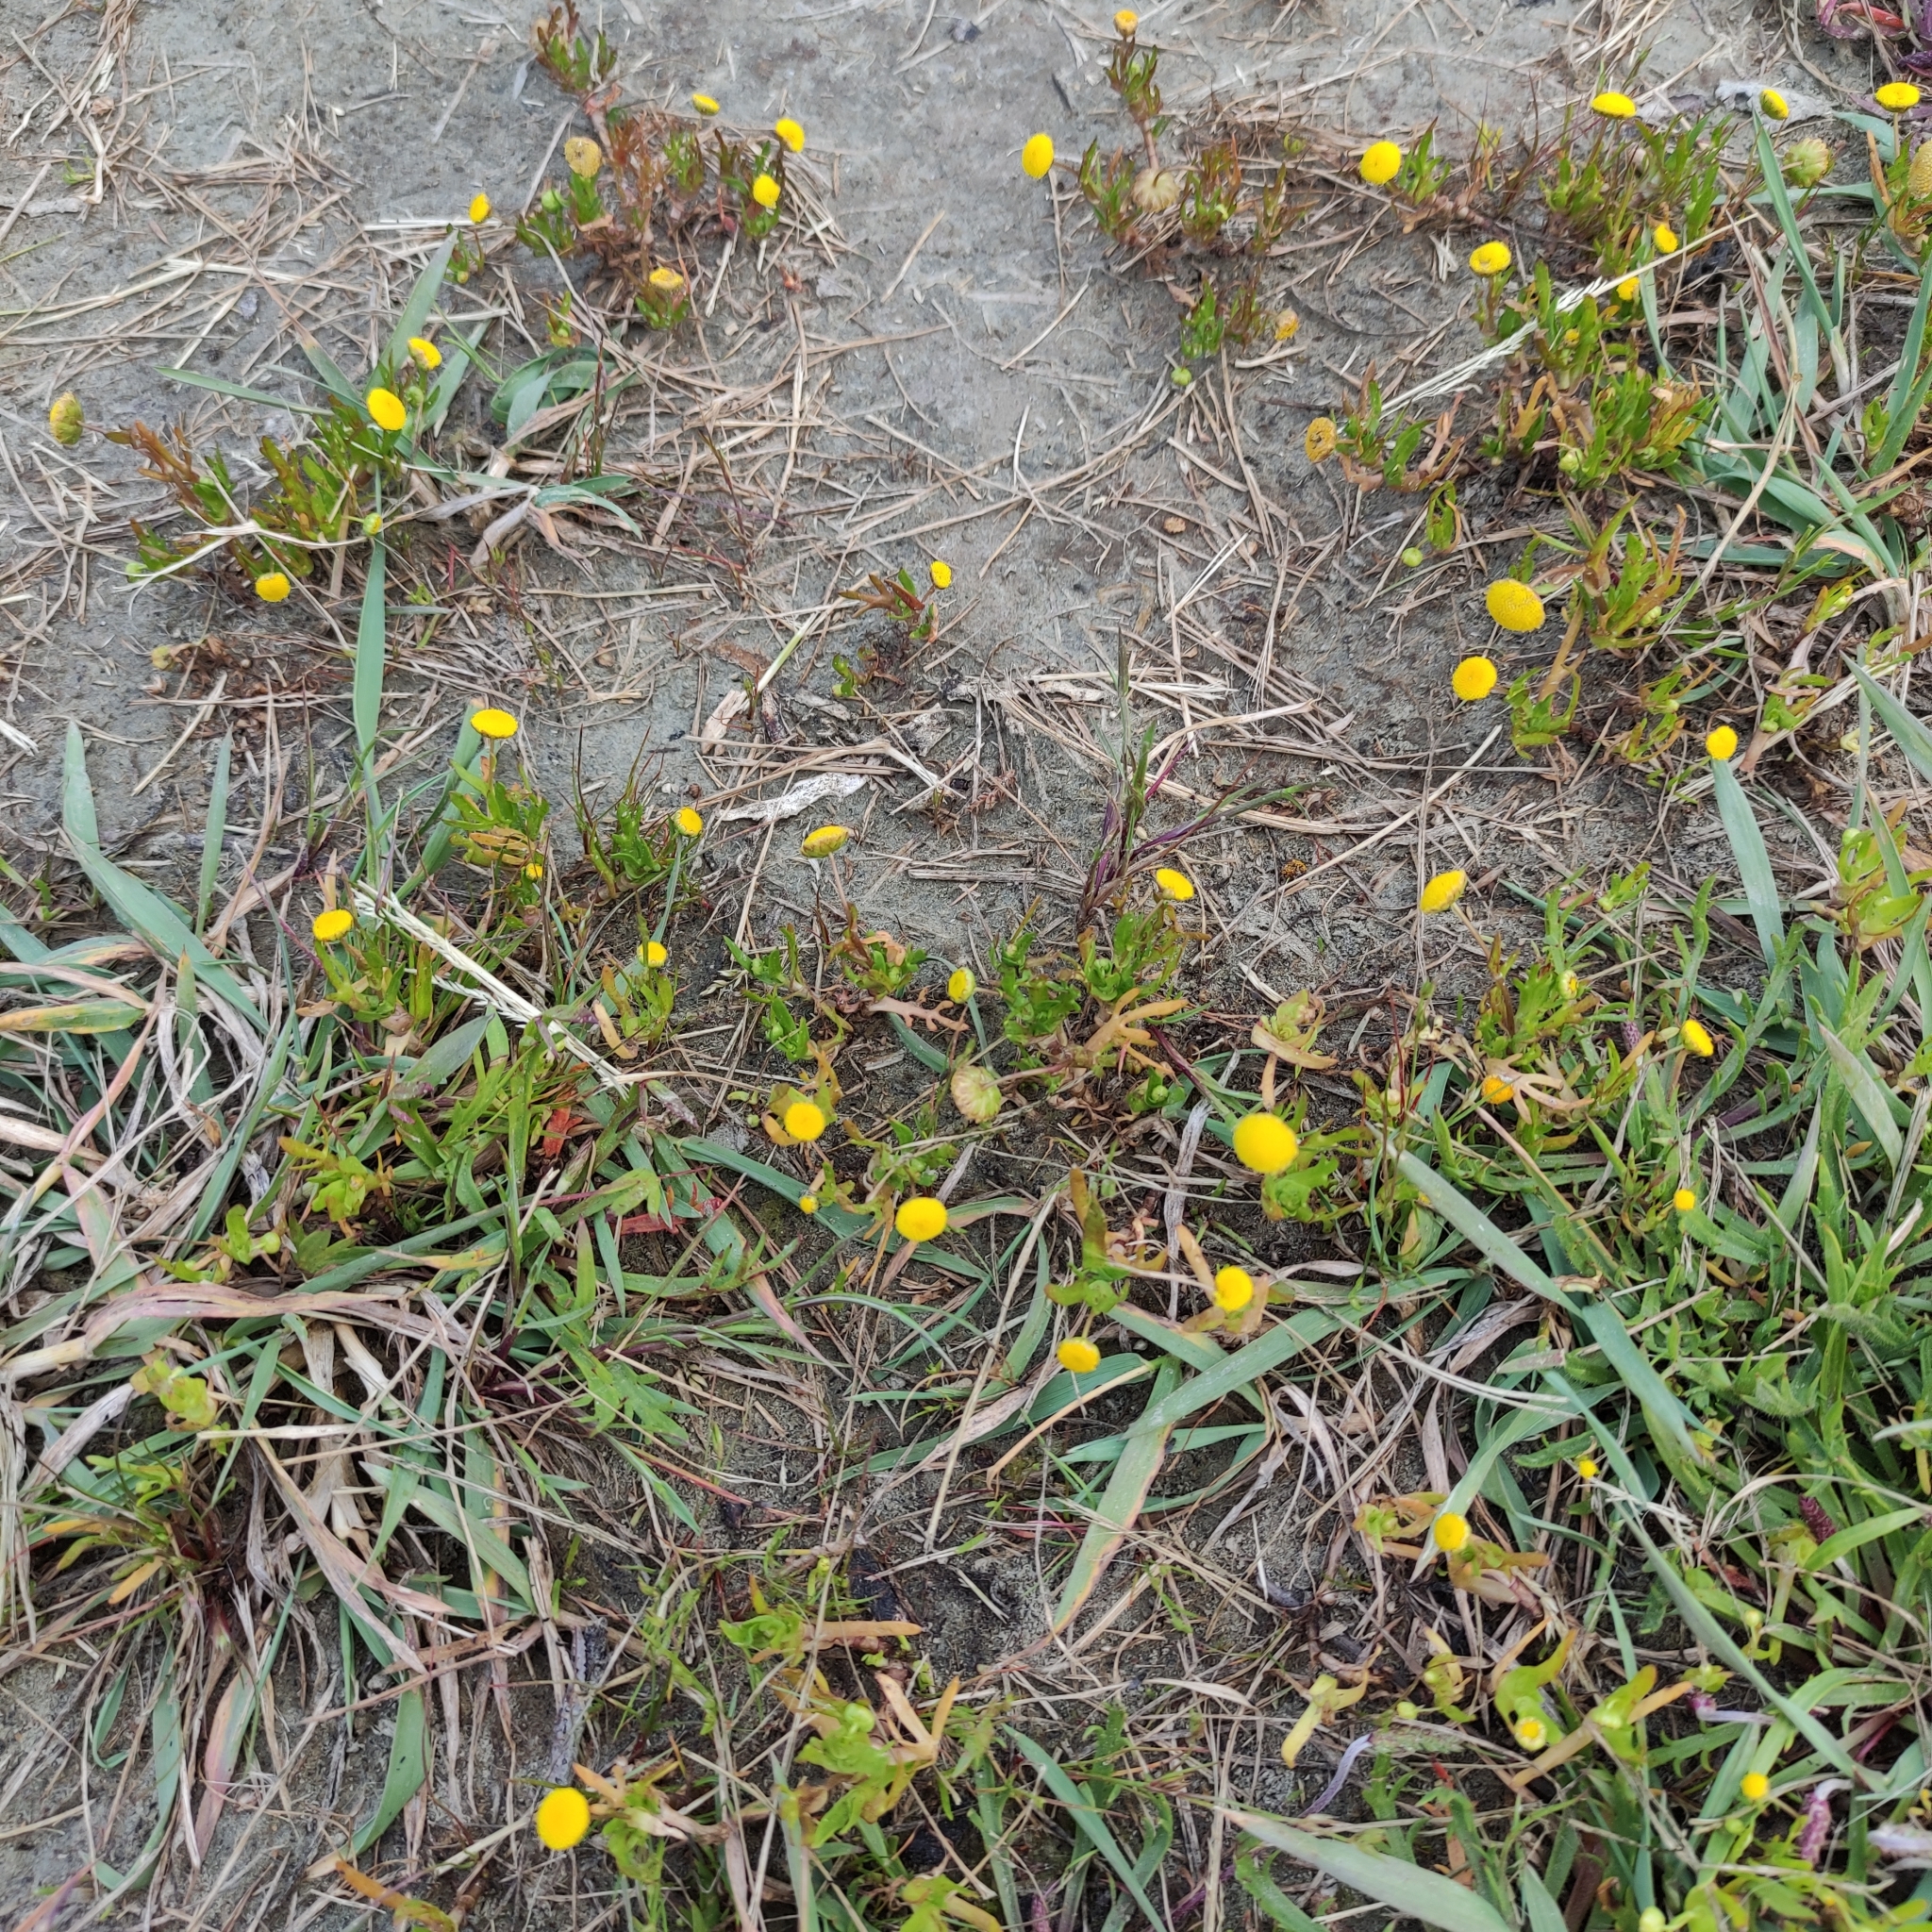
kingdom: Plantae
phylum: Tracheophyta
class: Magnoliopsida
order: Asterales
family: Asteraceae
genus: Cotula
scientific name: Cotula coronopifolia
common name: Buttonweed
